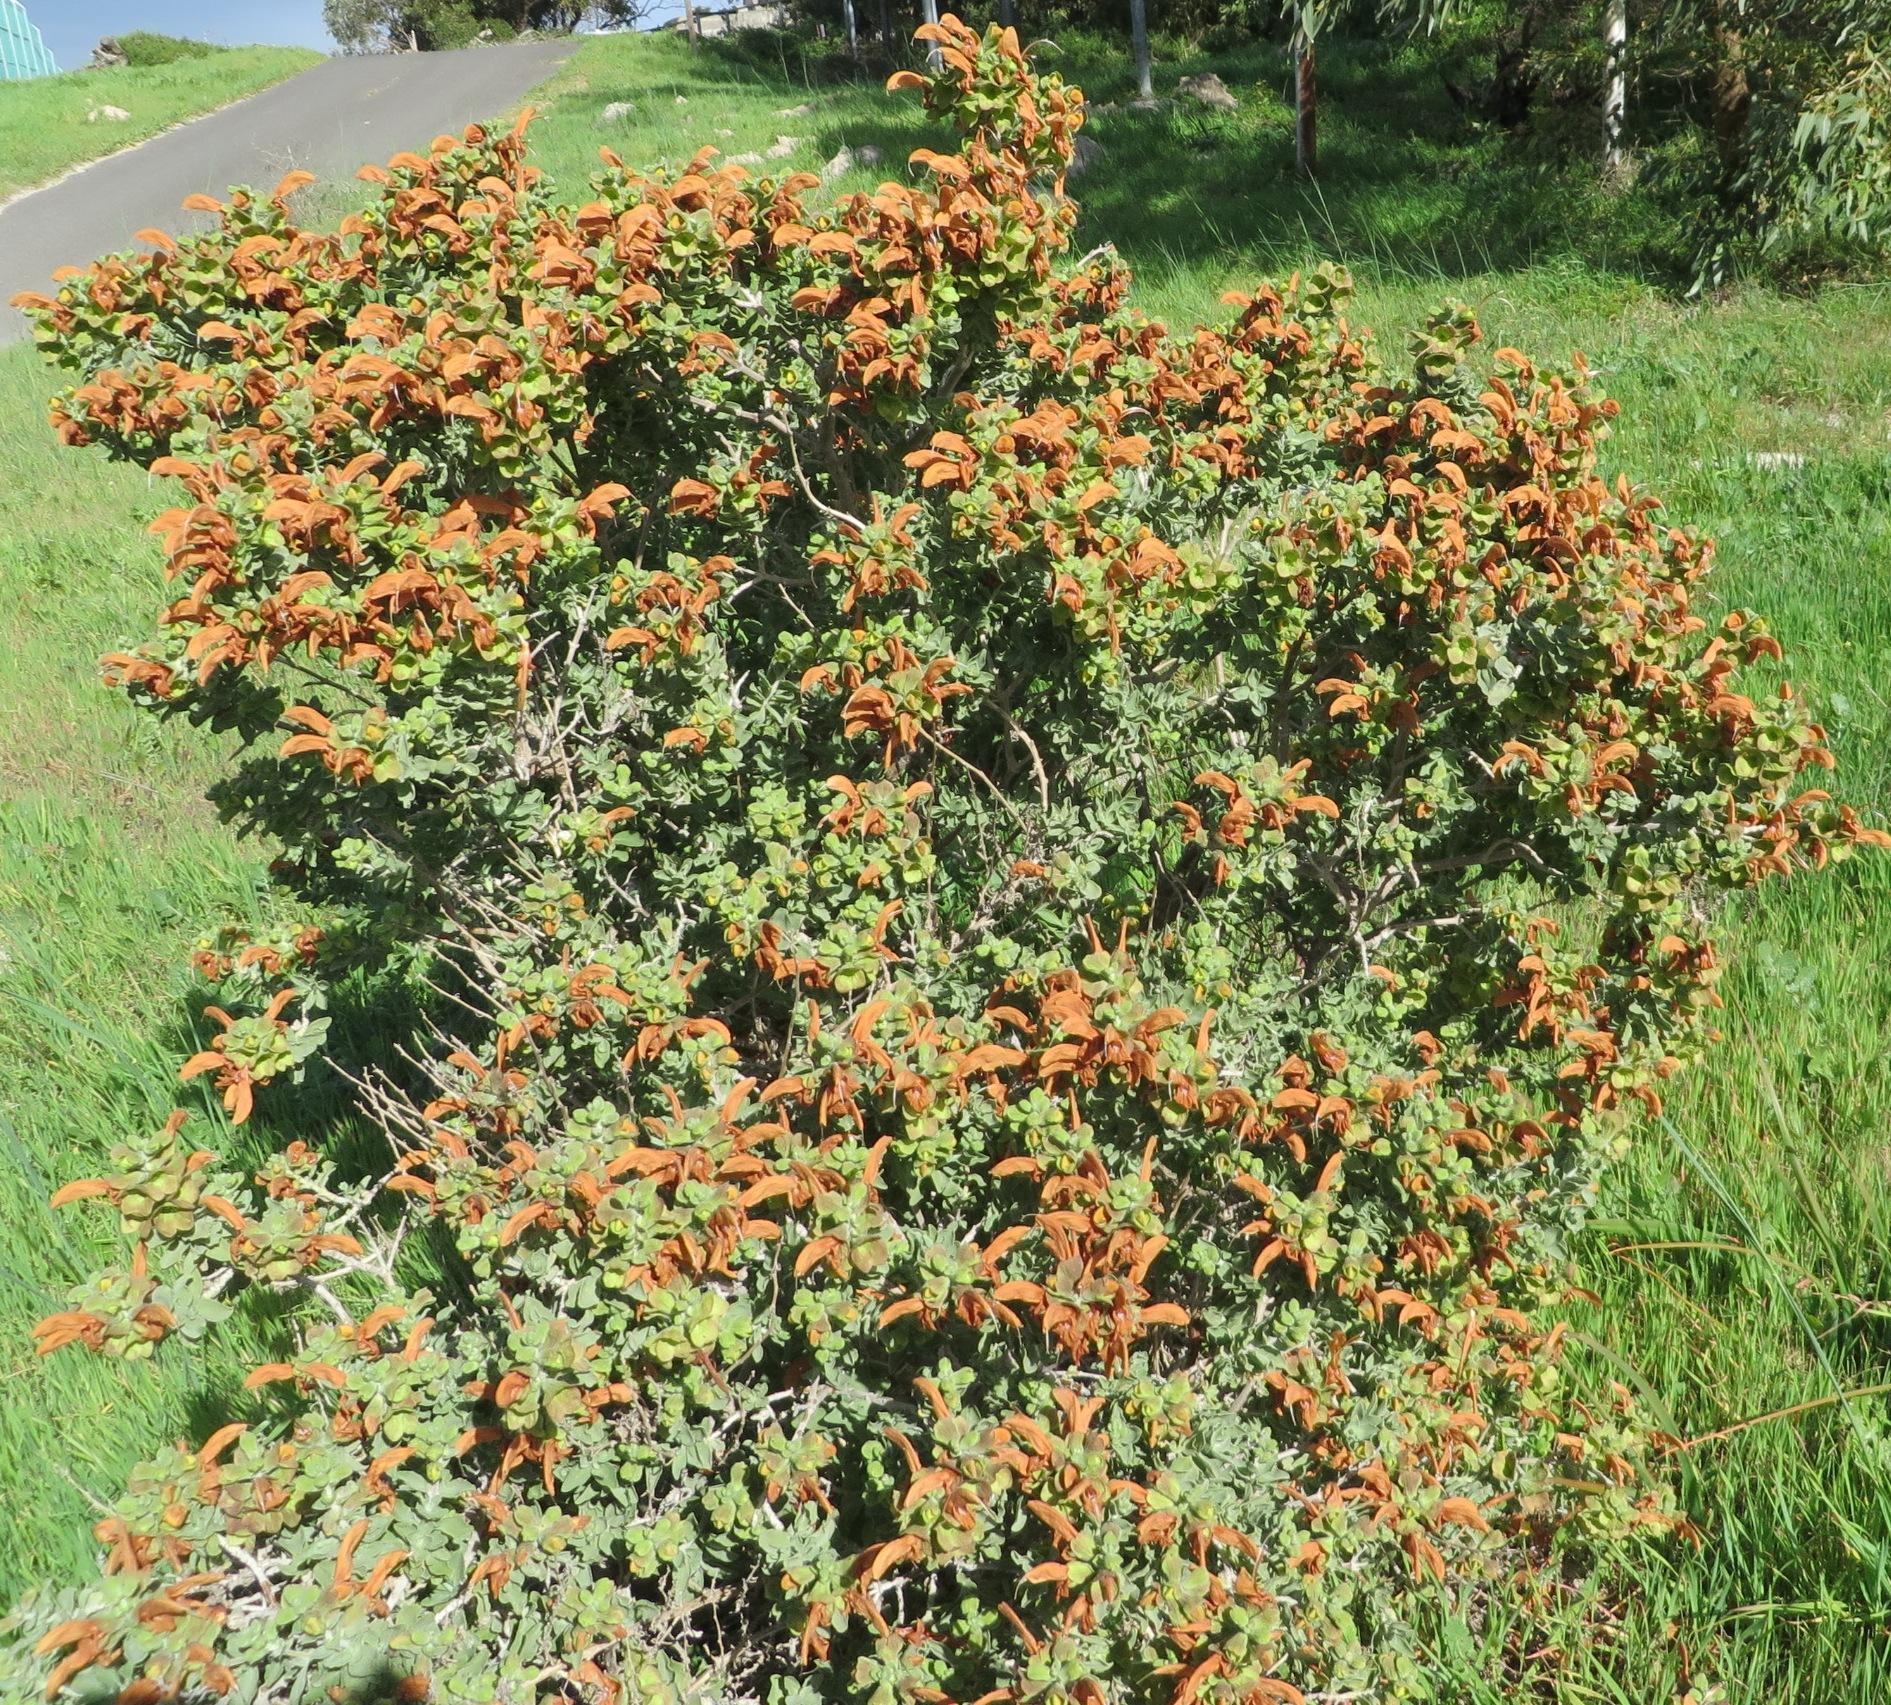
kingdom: Plantae
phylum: Tracheophyta
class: Magnoliopsida
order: Lamiales
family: Lamiaceae
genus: Salvia
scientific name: Salvia aurea
